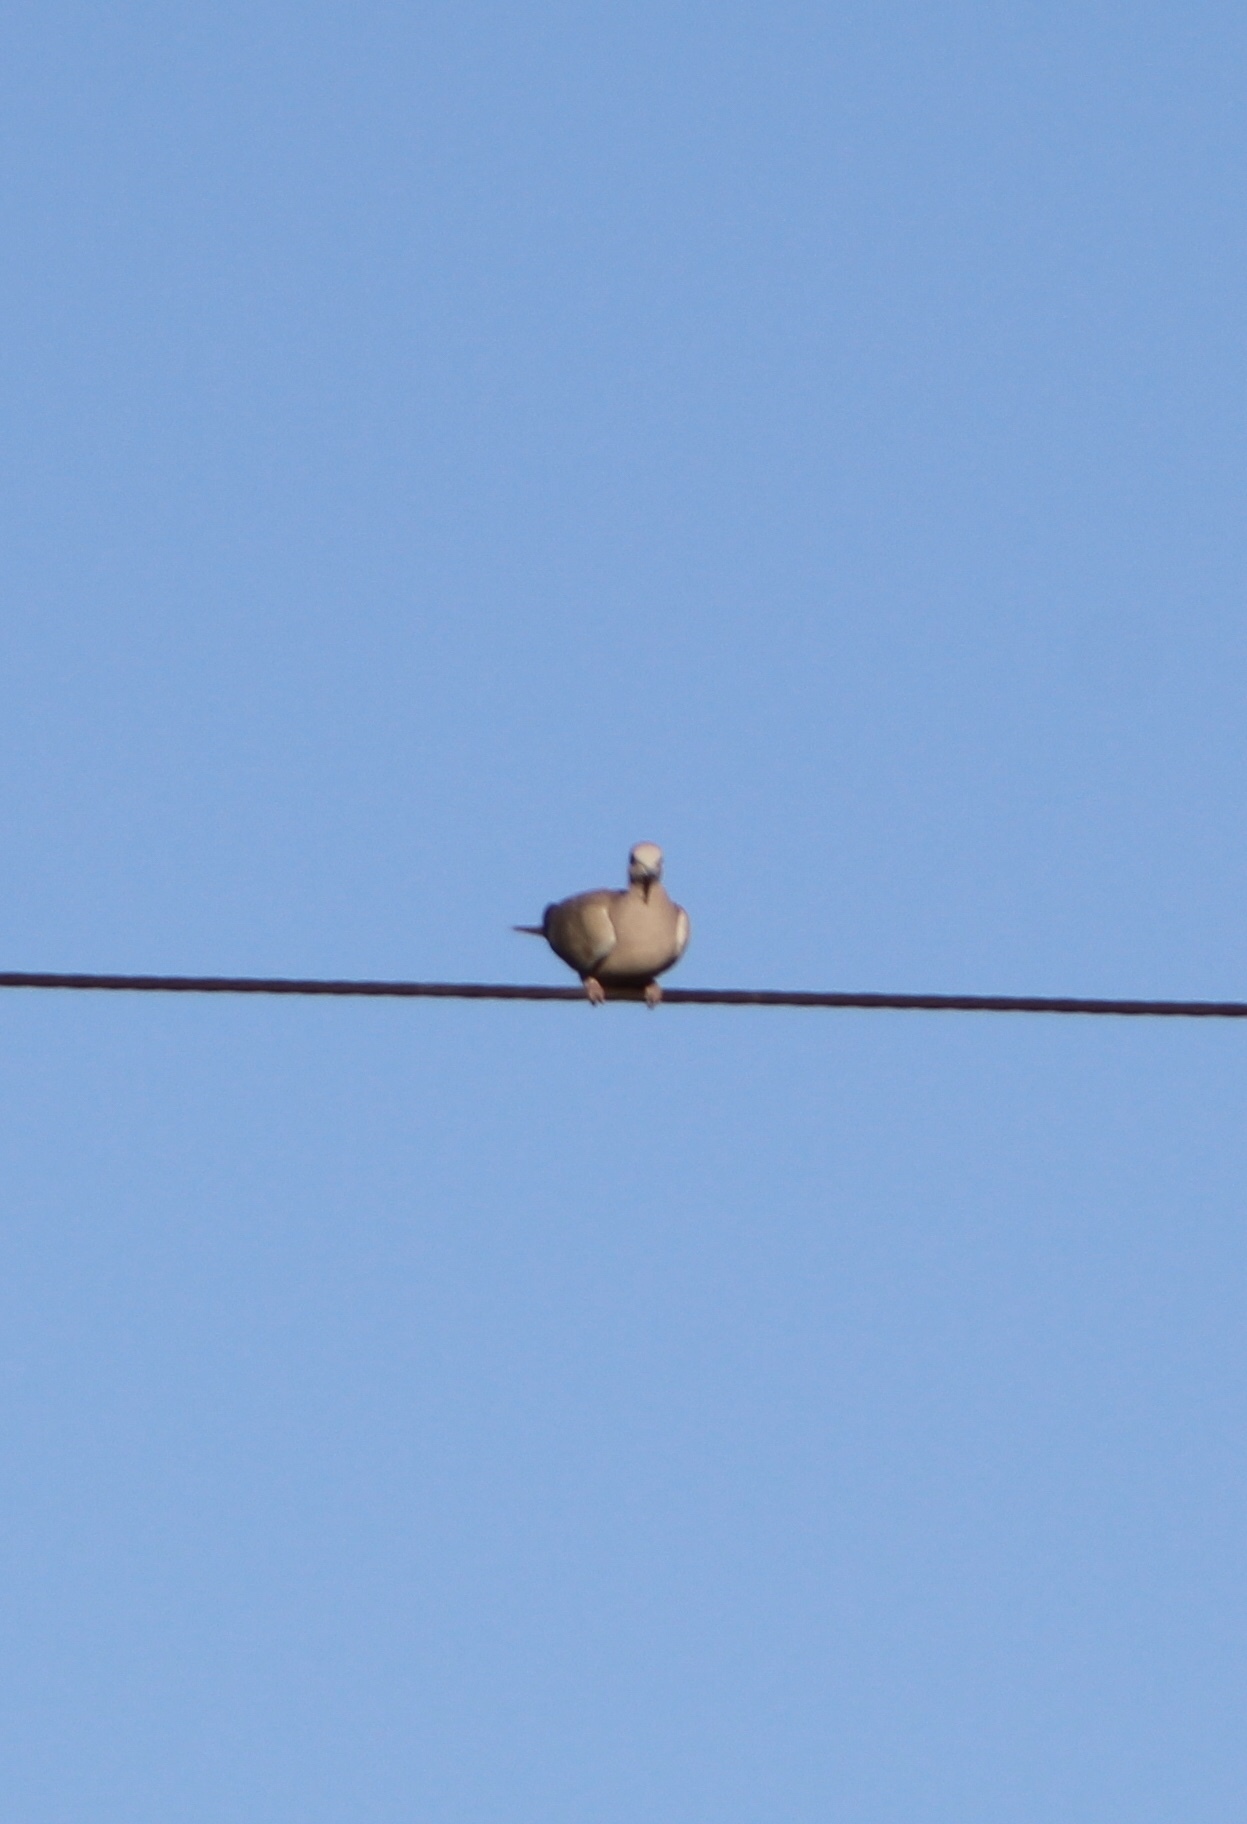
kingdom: Animalia
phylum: Chordata
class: Aves
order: Columbiformes
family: Columbidae
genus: Zenaida
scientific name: Zenaida macroura
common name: Mourning dove
